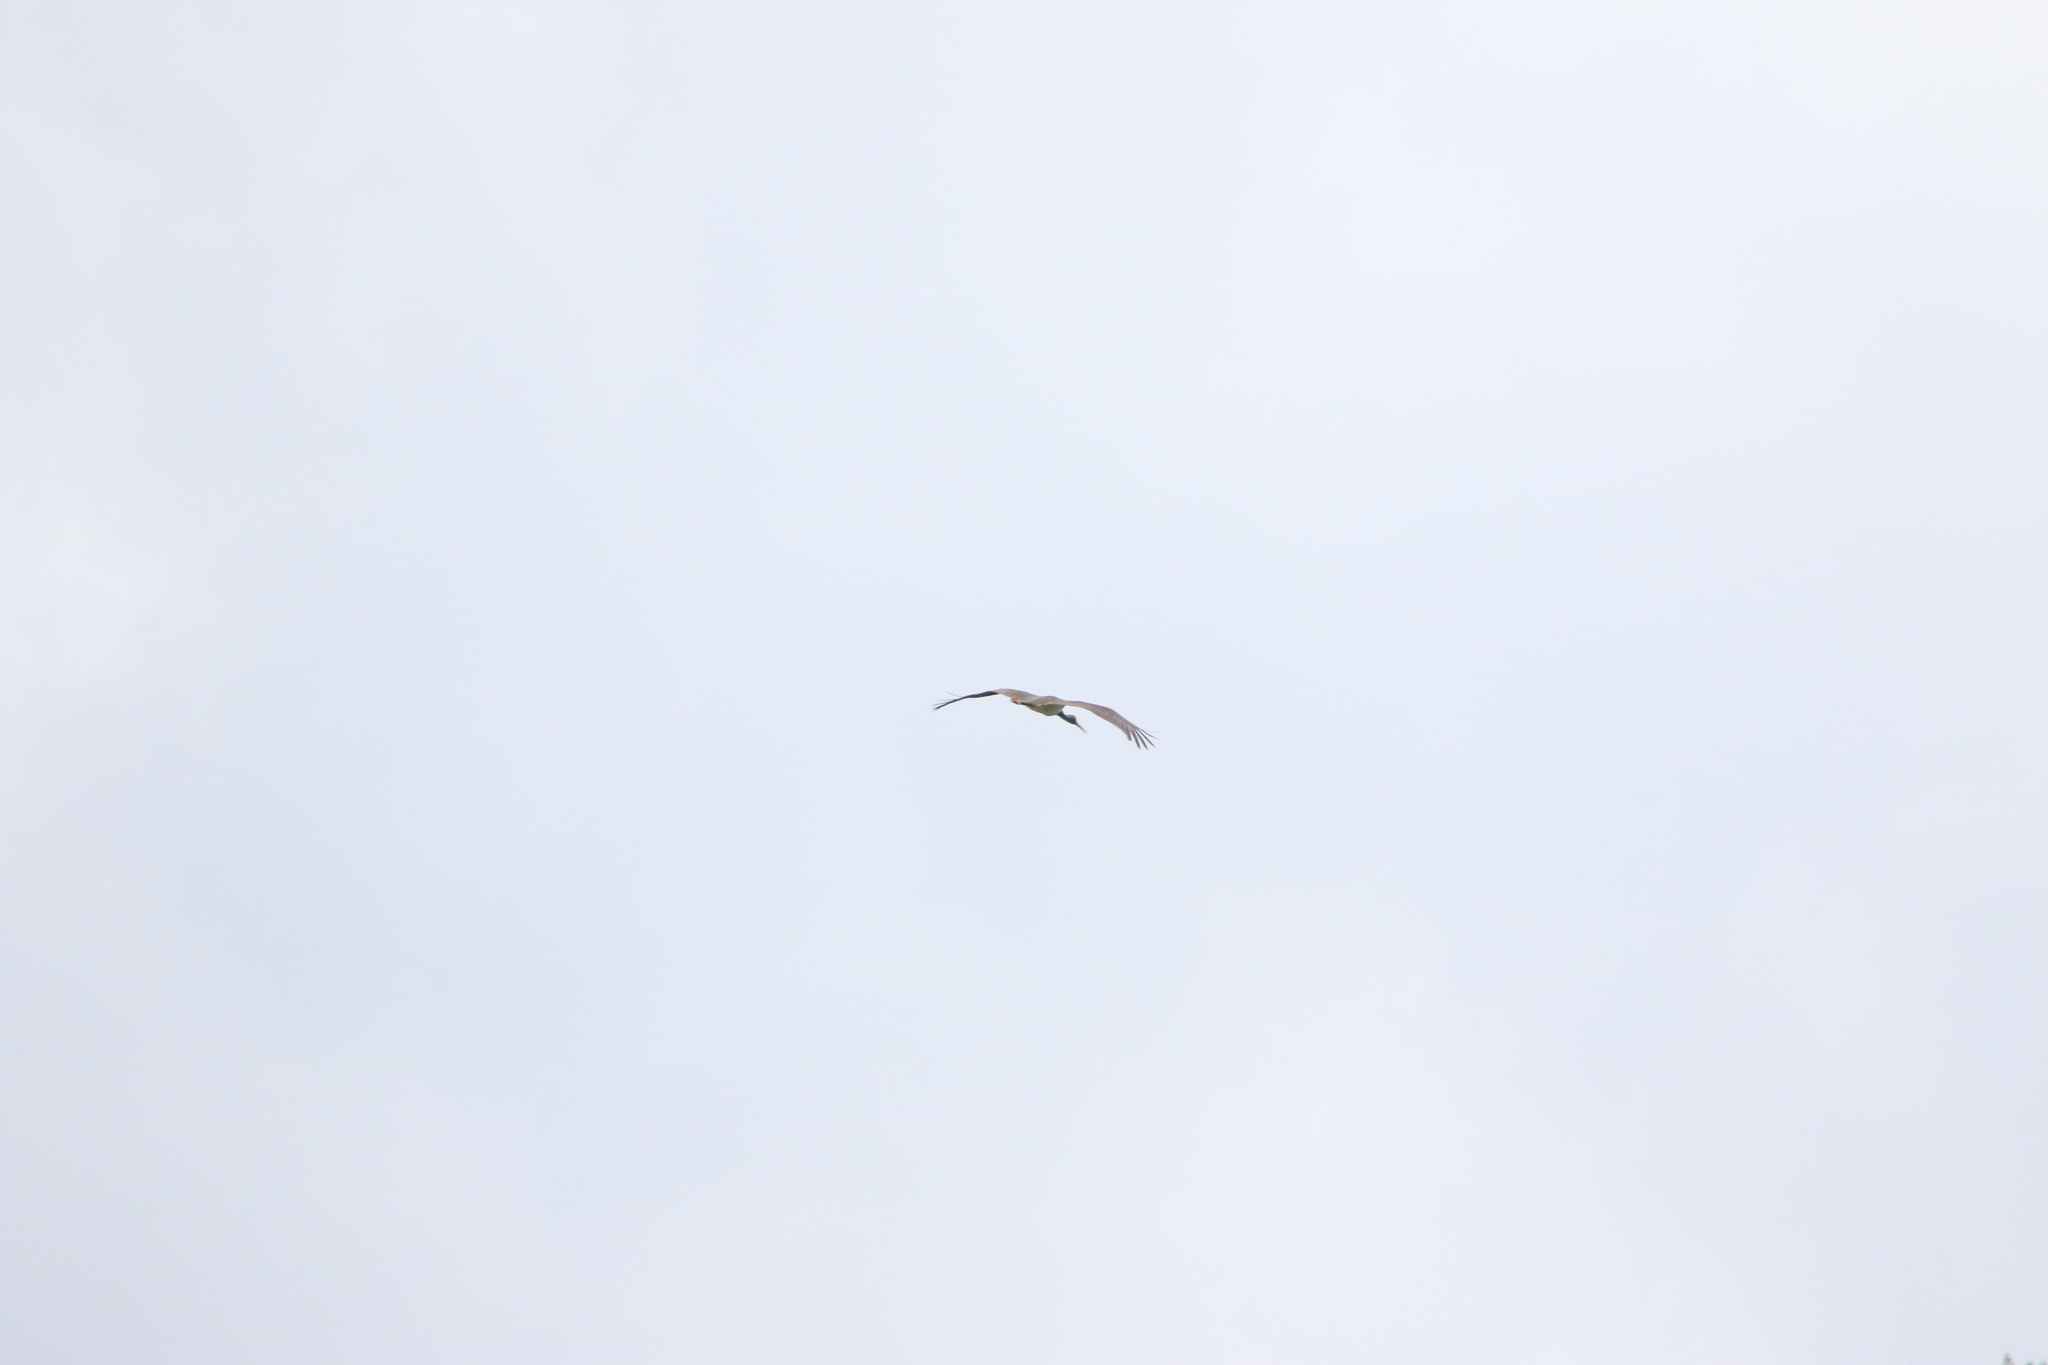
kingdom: Animalia
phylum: Chordata
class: Aves
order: Ciconiiformes
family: Ciconiidae
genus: Ciconia
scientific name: Ciconia nigra
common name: Black stork
